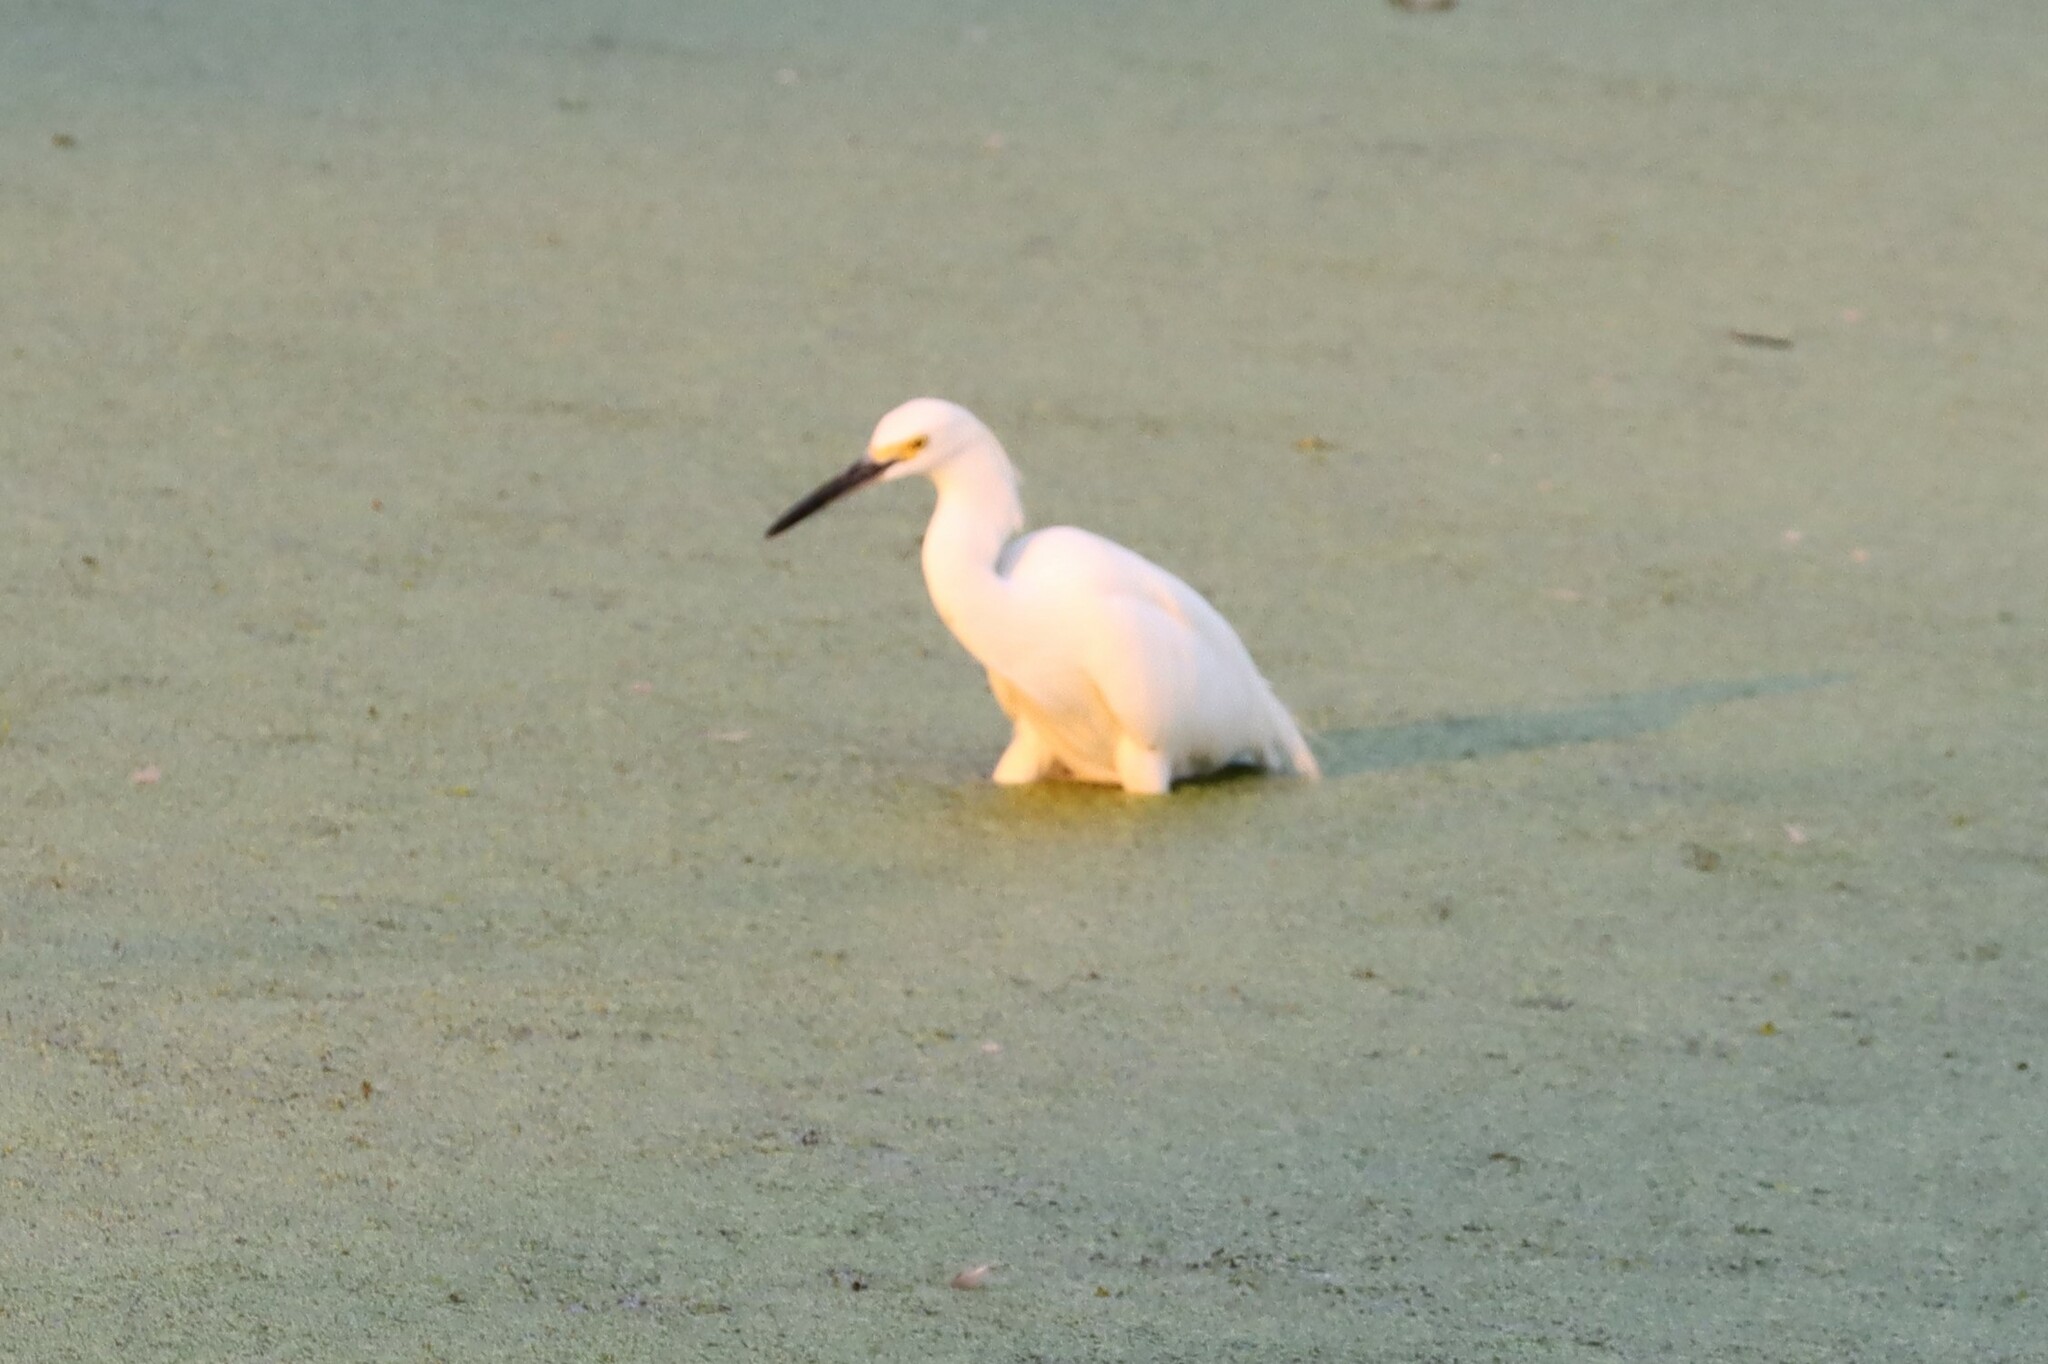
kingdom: Animalia
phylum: Chordata
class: Aves
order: Pelecaniformes
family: Ardeidae
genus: Egretta
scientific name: Egretta thula
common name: Snowy egret
